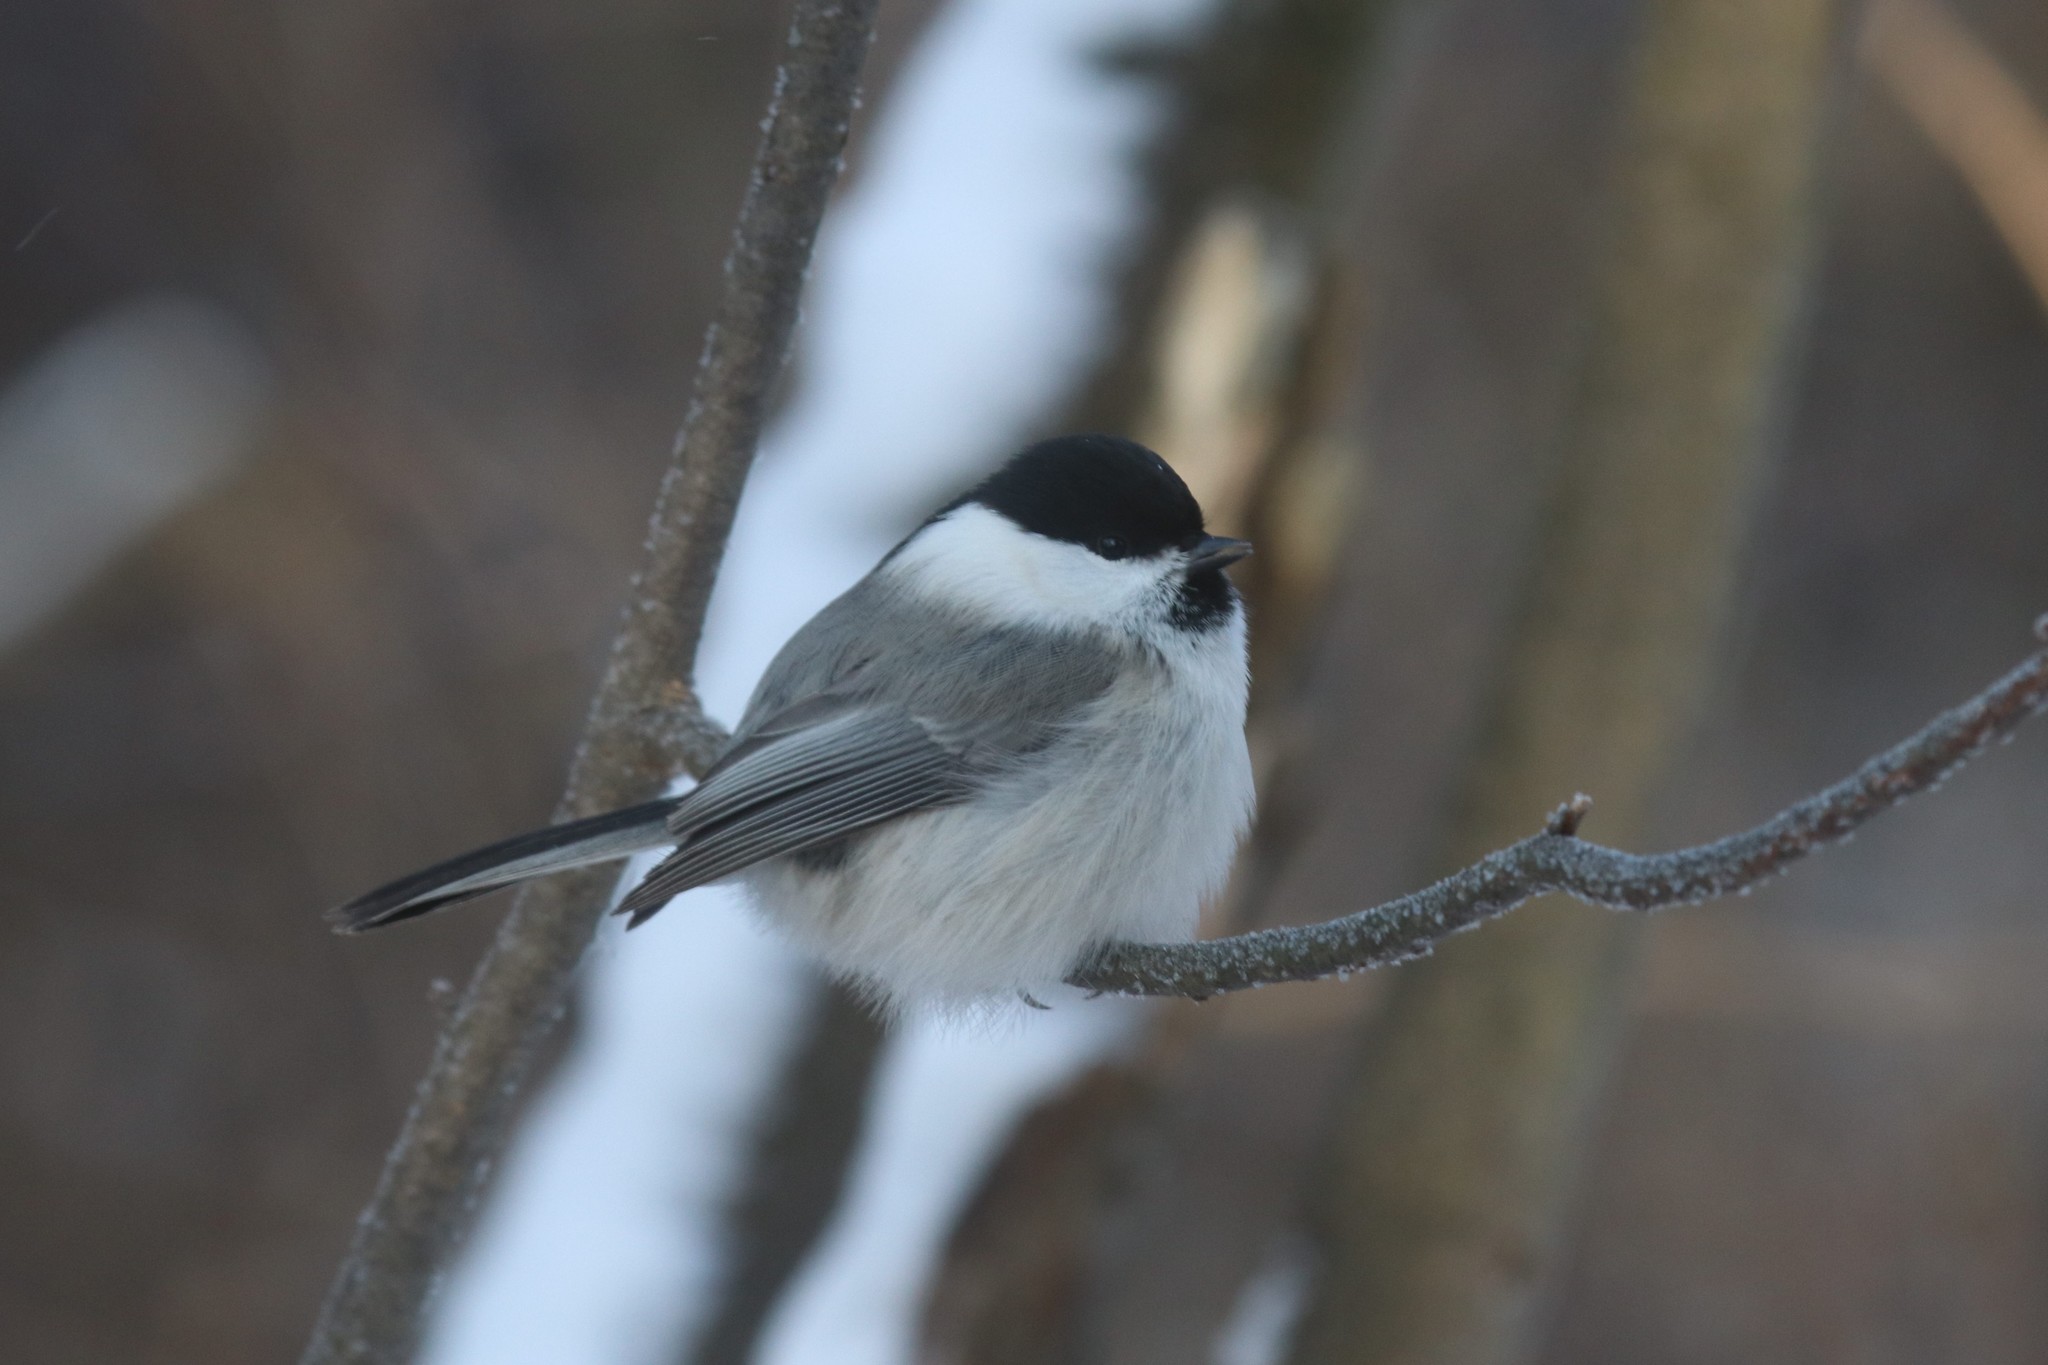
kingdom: Animalia
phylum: Chordata
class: Aves
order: Passeriformes
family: Paridae
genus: Poecile
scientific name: Poecile montanus
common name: Willow tit
